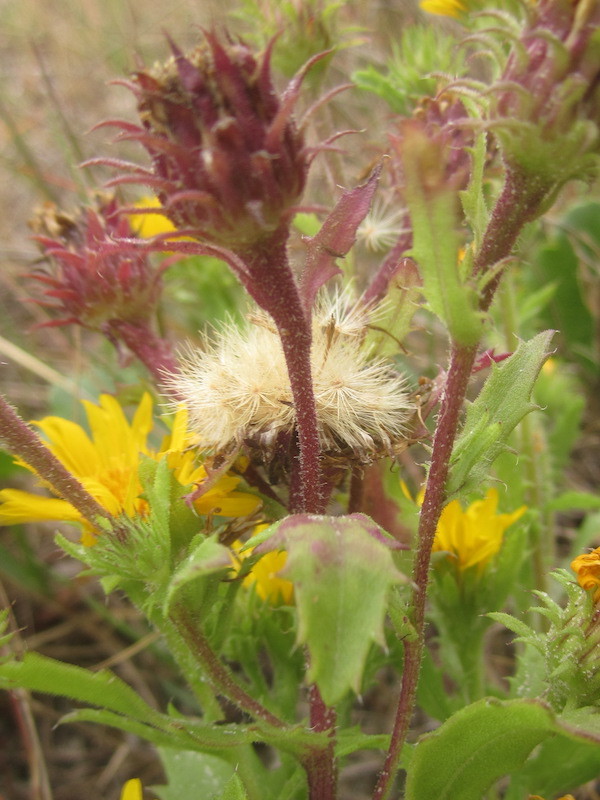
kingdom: Plantae
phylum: Tracheophyta
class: Magnoliopsida
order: Asterales
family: Asteraceae
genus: Rayjacksonia
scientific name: Rayjacksonia phyllocephala
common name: Gulf coast camphor daisy
